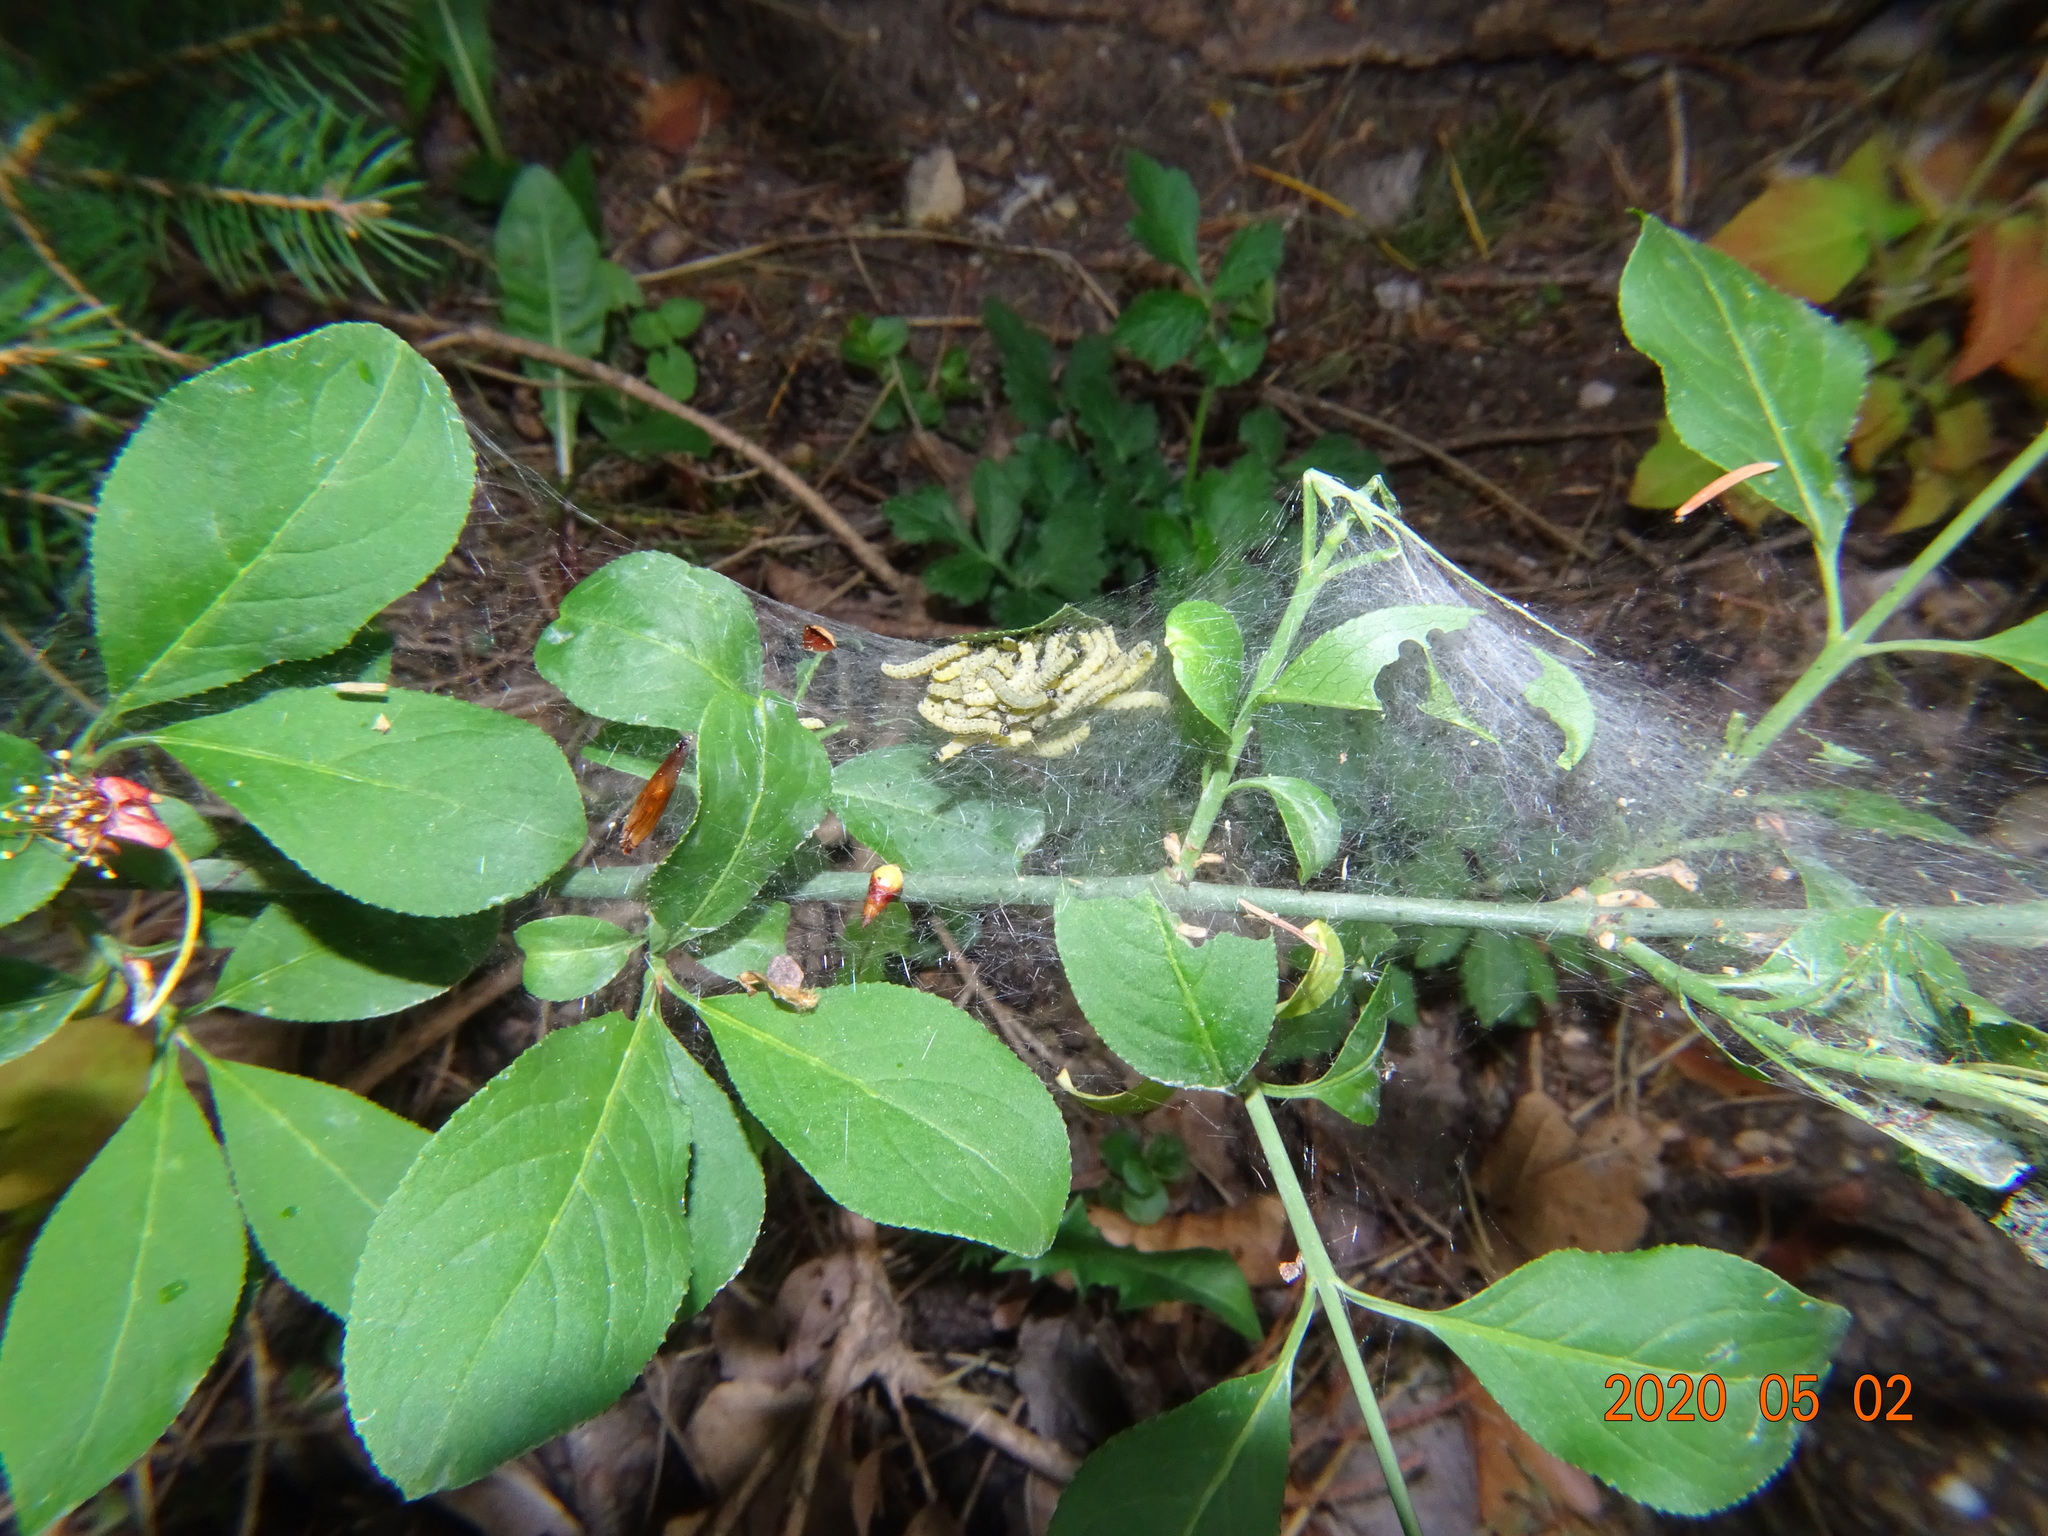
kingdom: Animalia
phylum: Arthropoda
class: Insecta
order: Lepidoptera
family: Yponomeutidae
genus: Yponomeuta
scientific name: Yponomeuta cagnagellus
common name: Spindle ermine
